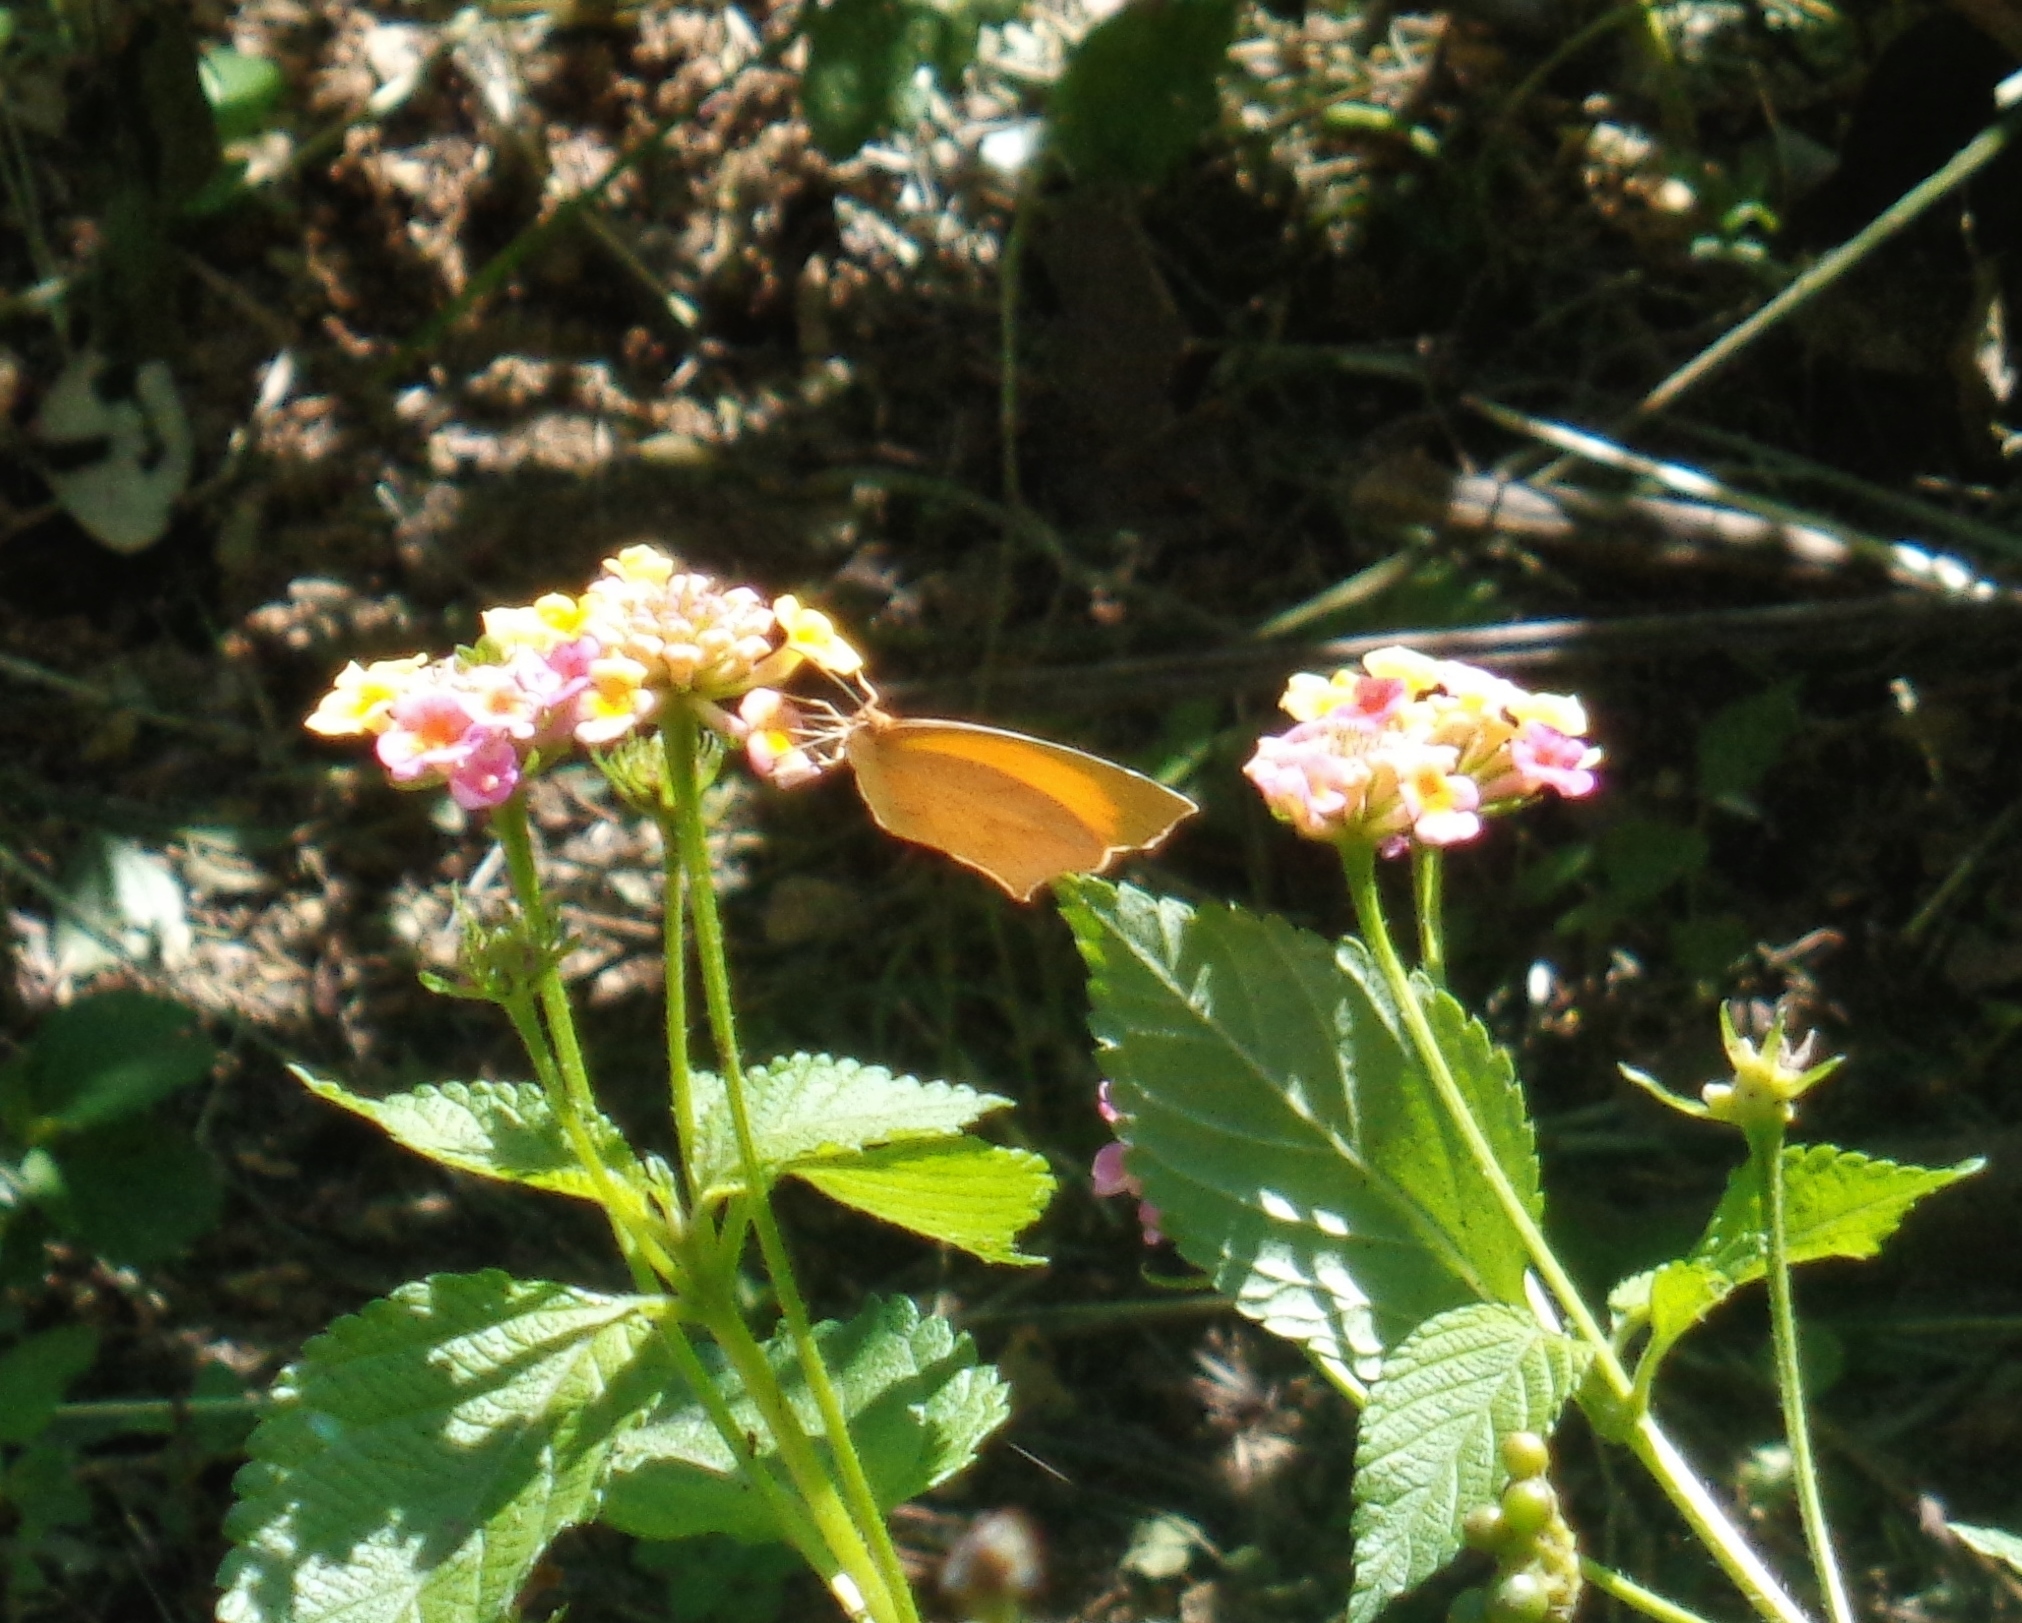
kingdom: Animalia
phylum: Arthropoda
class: Insecta
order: Lepidoptera
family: Pieridae
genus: Pyrisitia
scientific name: Pyrisitia proterpia
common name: Tailed orange
